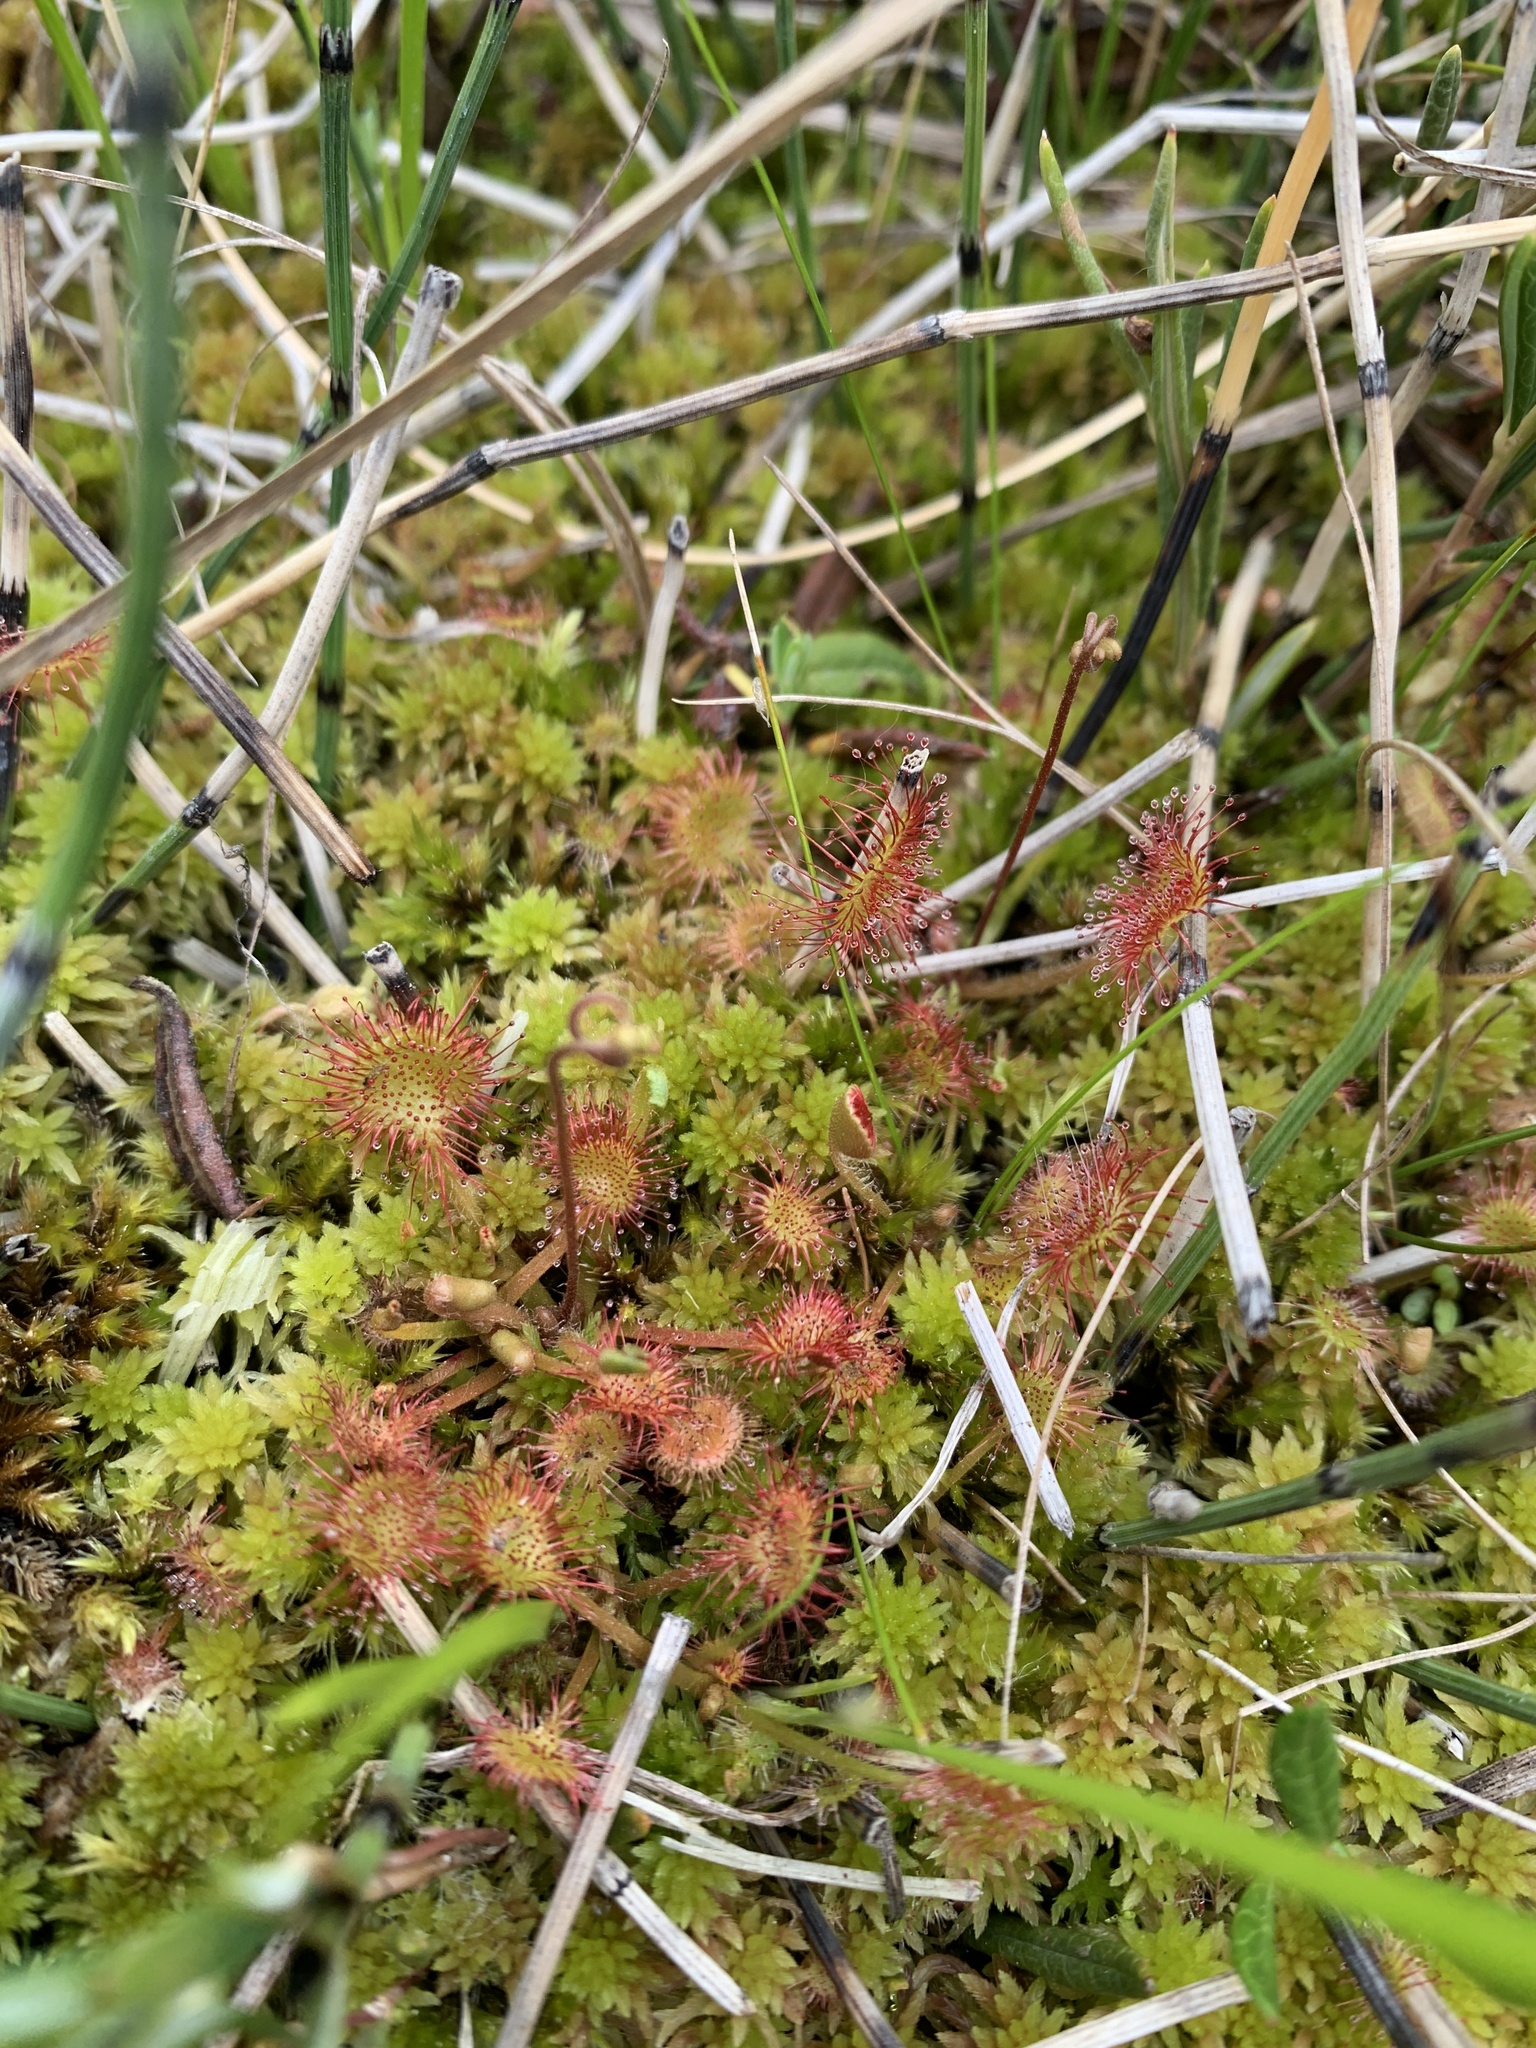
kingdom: Plantae
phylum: Tracheophyta
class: Magnoliopsida
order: Caryophyllales
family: Droseraceae
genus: Drosera
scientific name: Drosera rotundifolia
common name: Round-leaved sundew
